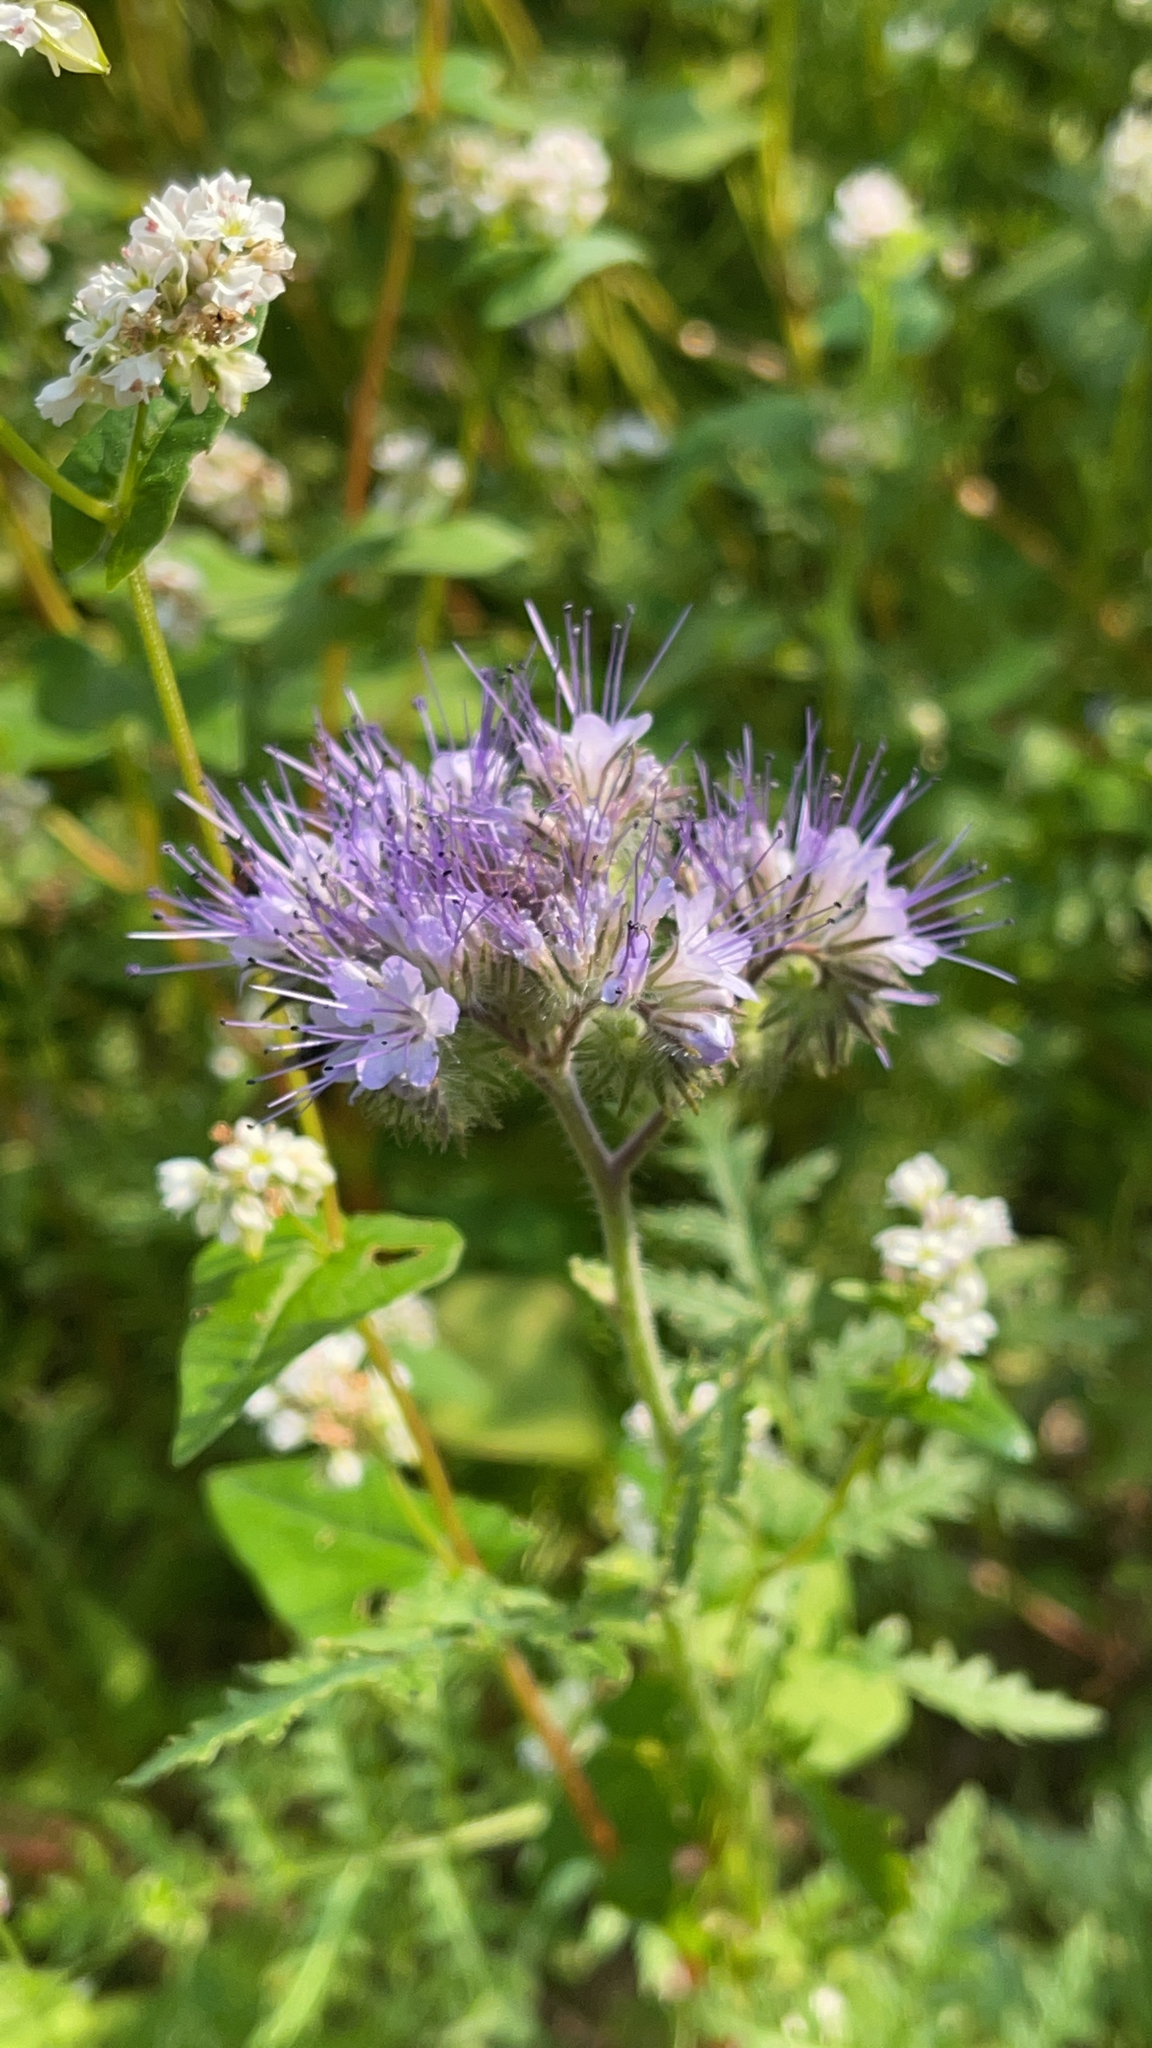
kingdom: Plantae
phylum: Tracheophyta
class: Magnoliopsida
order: Boraginales
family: Hydrophyllaceae
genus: Phacelia
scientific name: Phacelia tanacetifolia
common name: Phacelia
